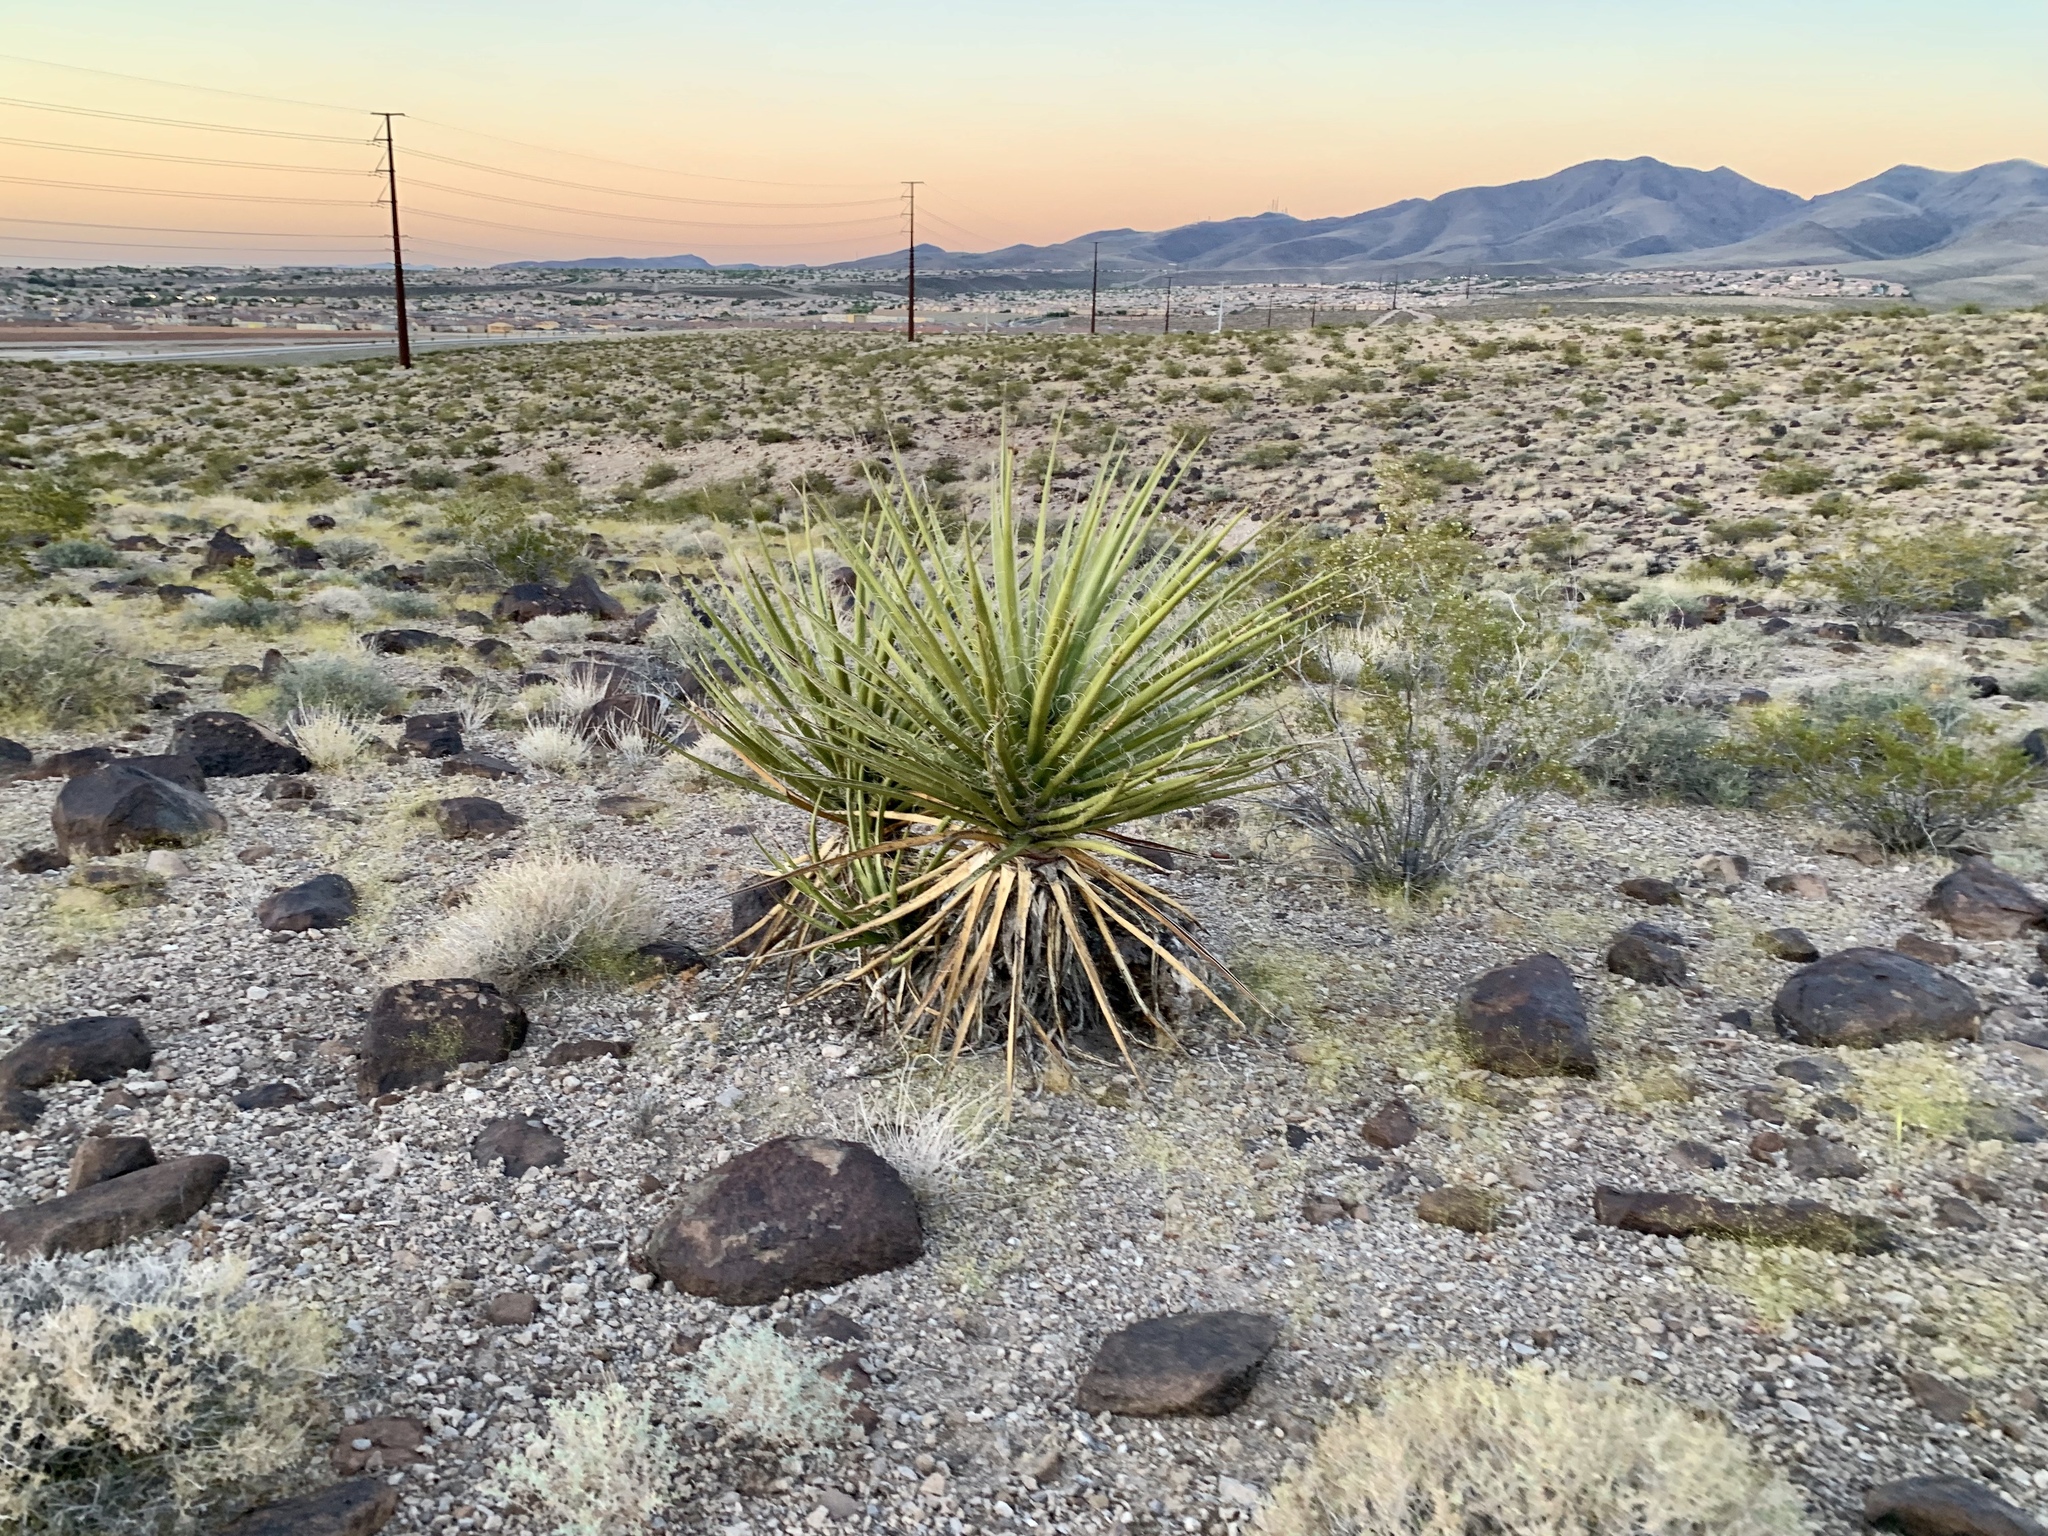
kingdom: Plantae
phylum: Tracheophyta
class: Liliopsida
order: Asparagales
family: Asparagaceae
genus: Yucca
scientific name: Yucca schidigera
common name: Mojave yucca
